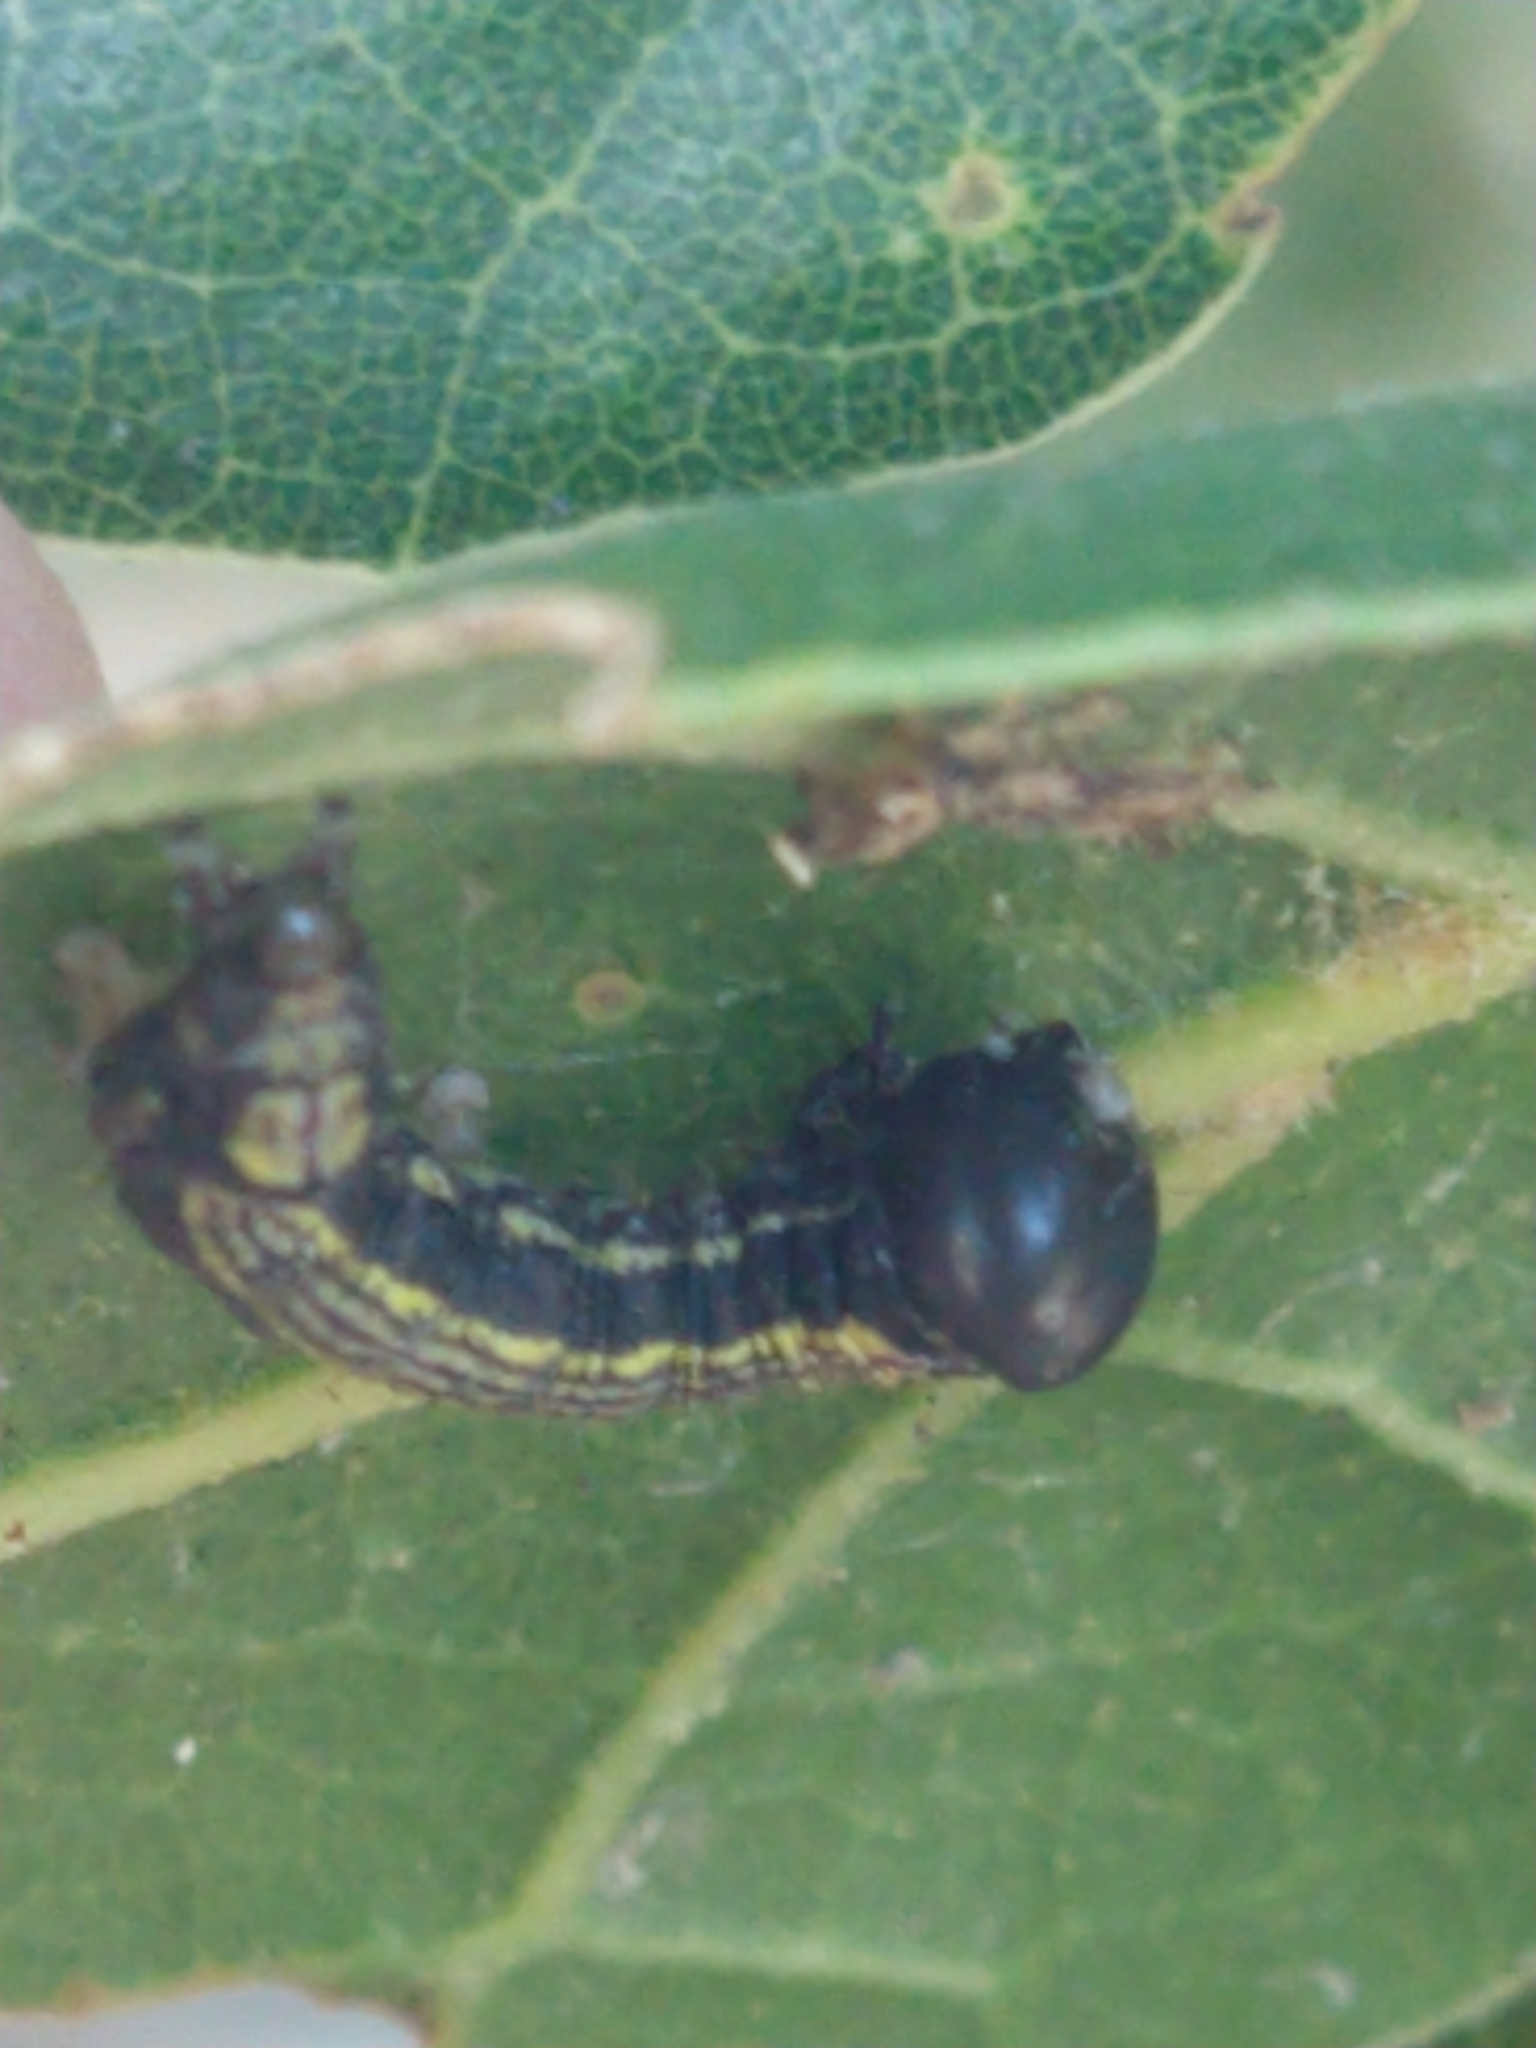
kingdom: Animalia
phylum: Arthropoda
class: Insecta
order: Lepidoptera
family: Notodontidae
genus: Phryganidia
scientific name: Phryganidia californica
